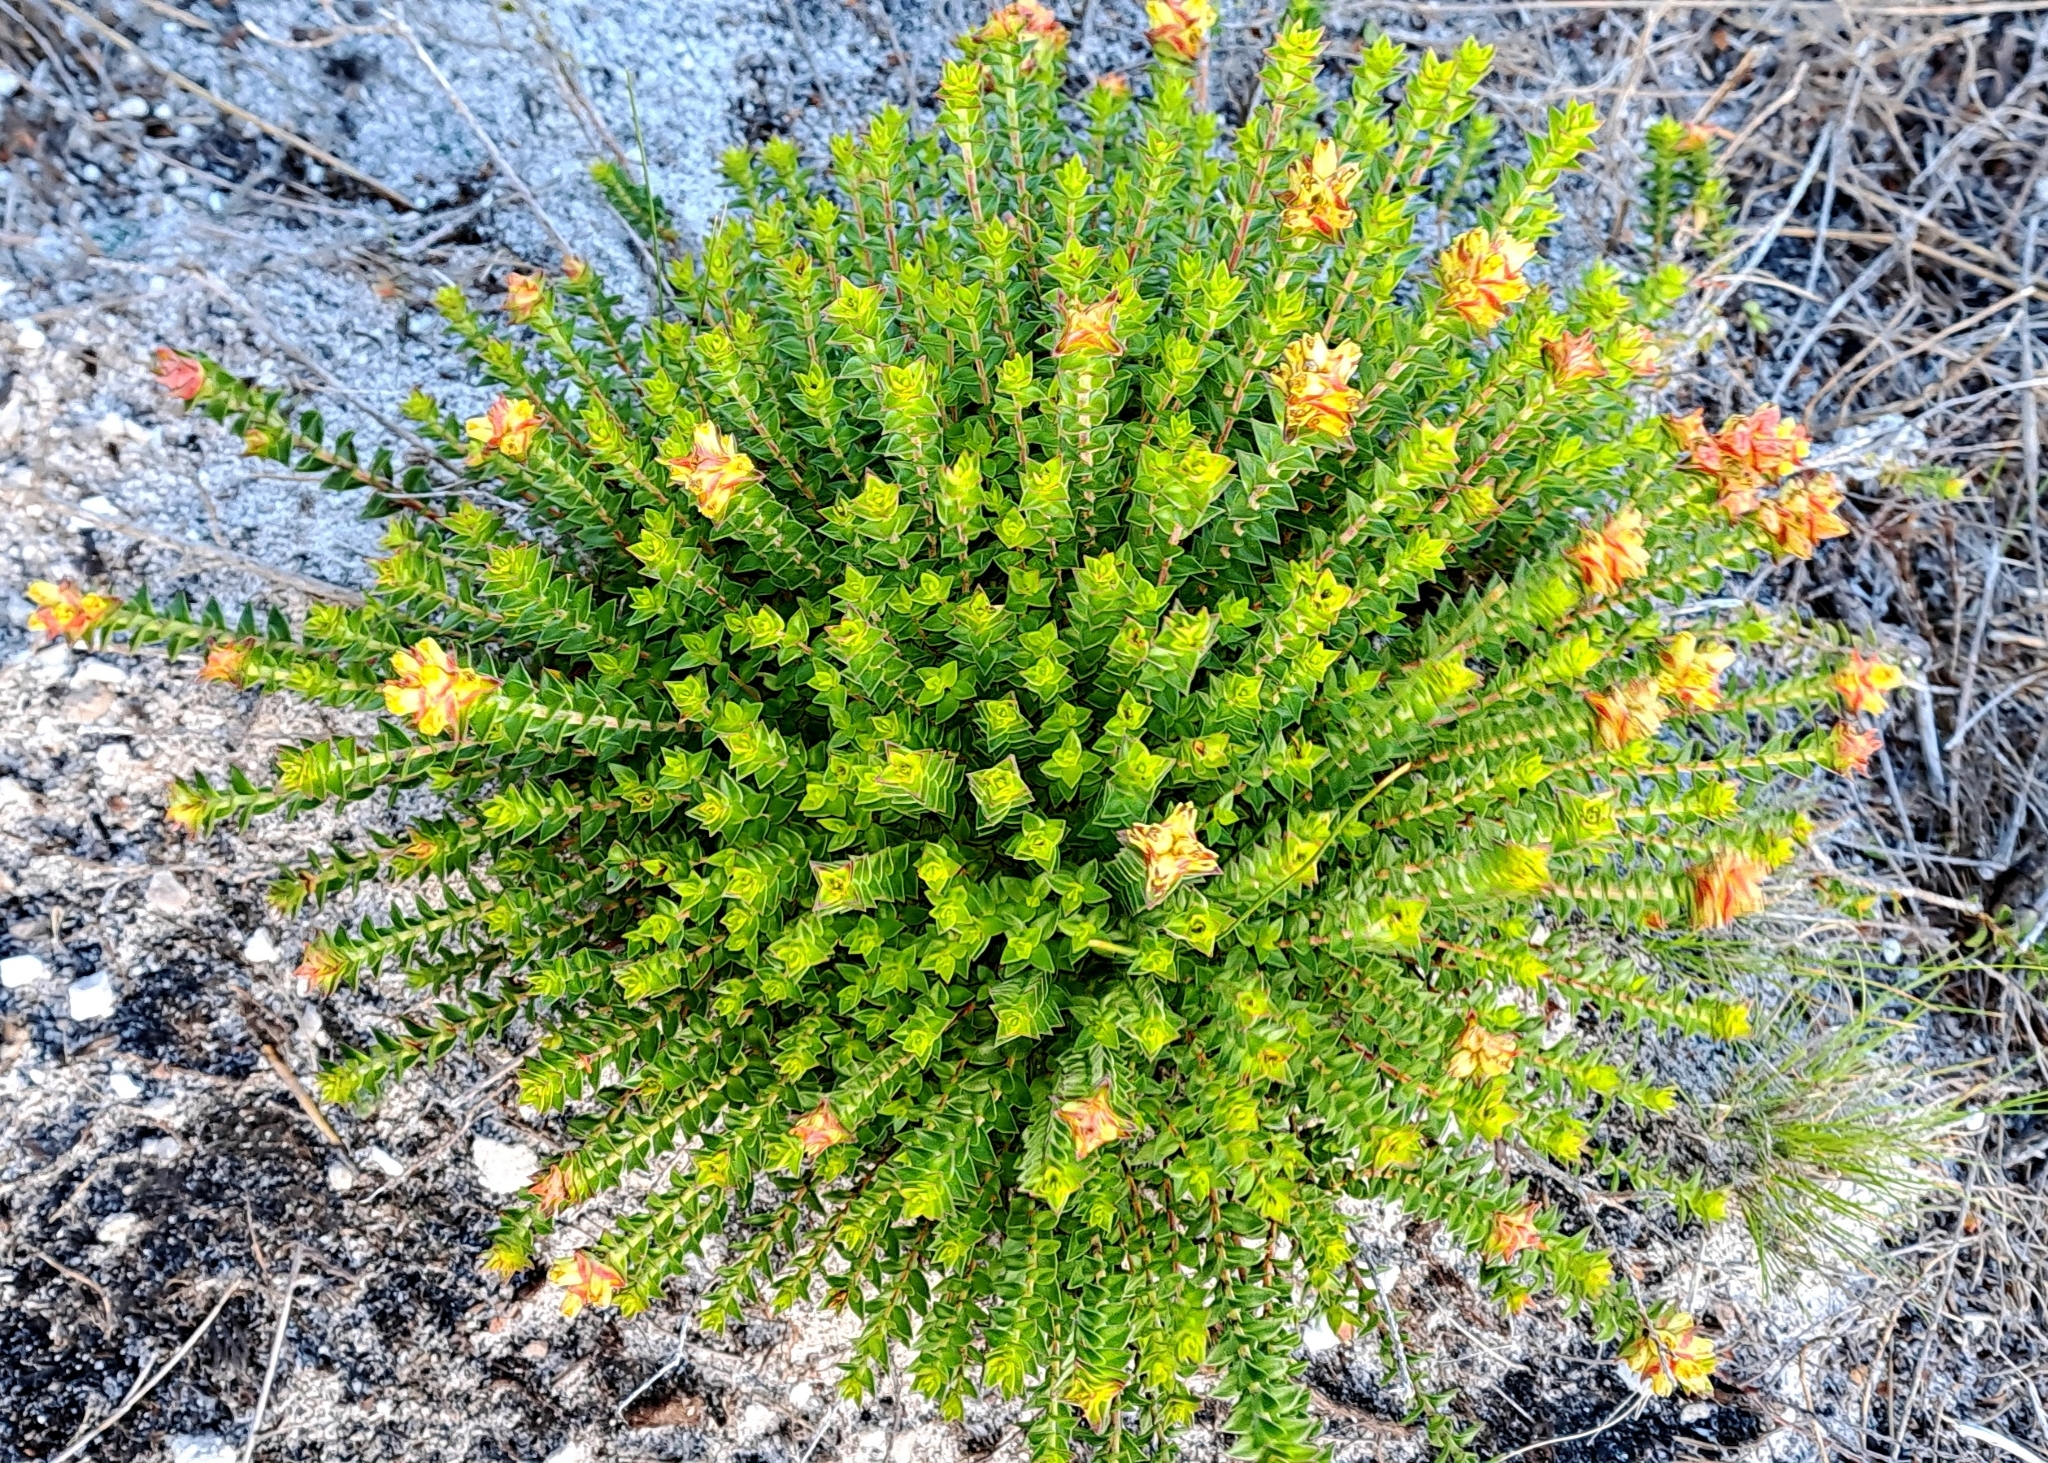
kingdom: Plantae
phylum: Tracheophyta
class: Magnoliopsida
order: Myrtales
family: Penaeaceae
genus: Penaea
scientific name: Penaea mucronata
